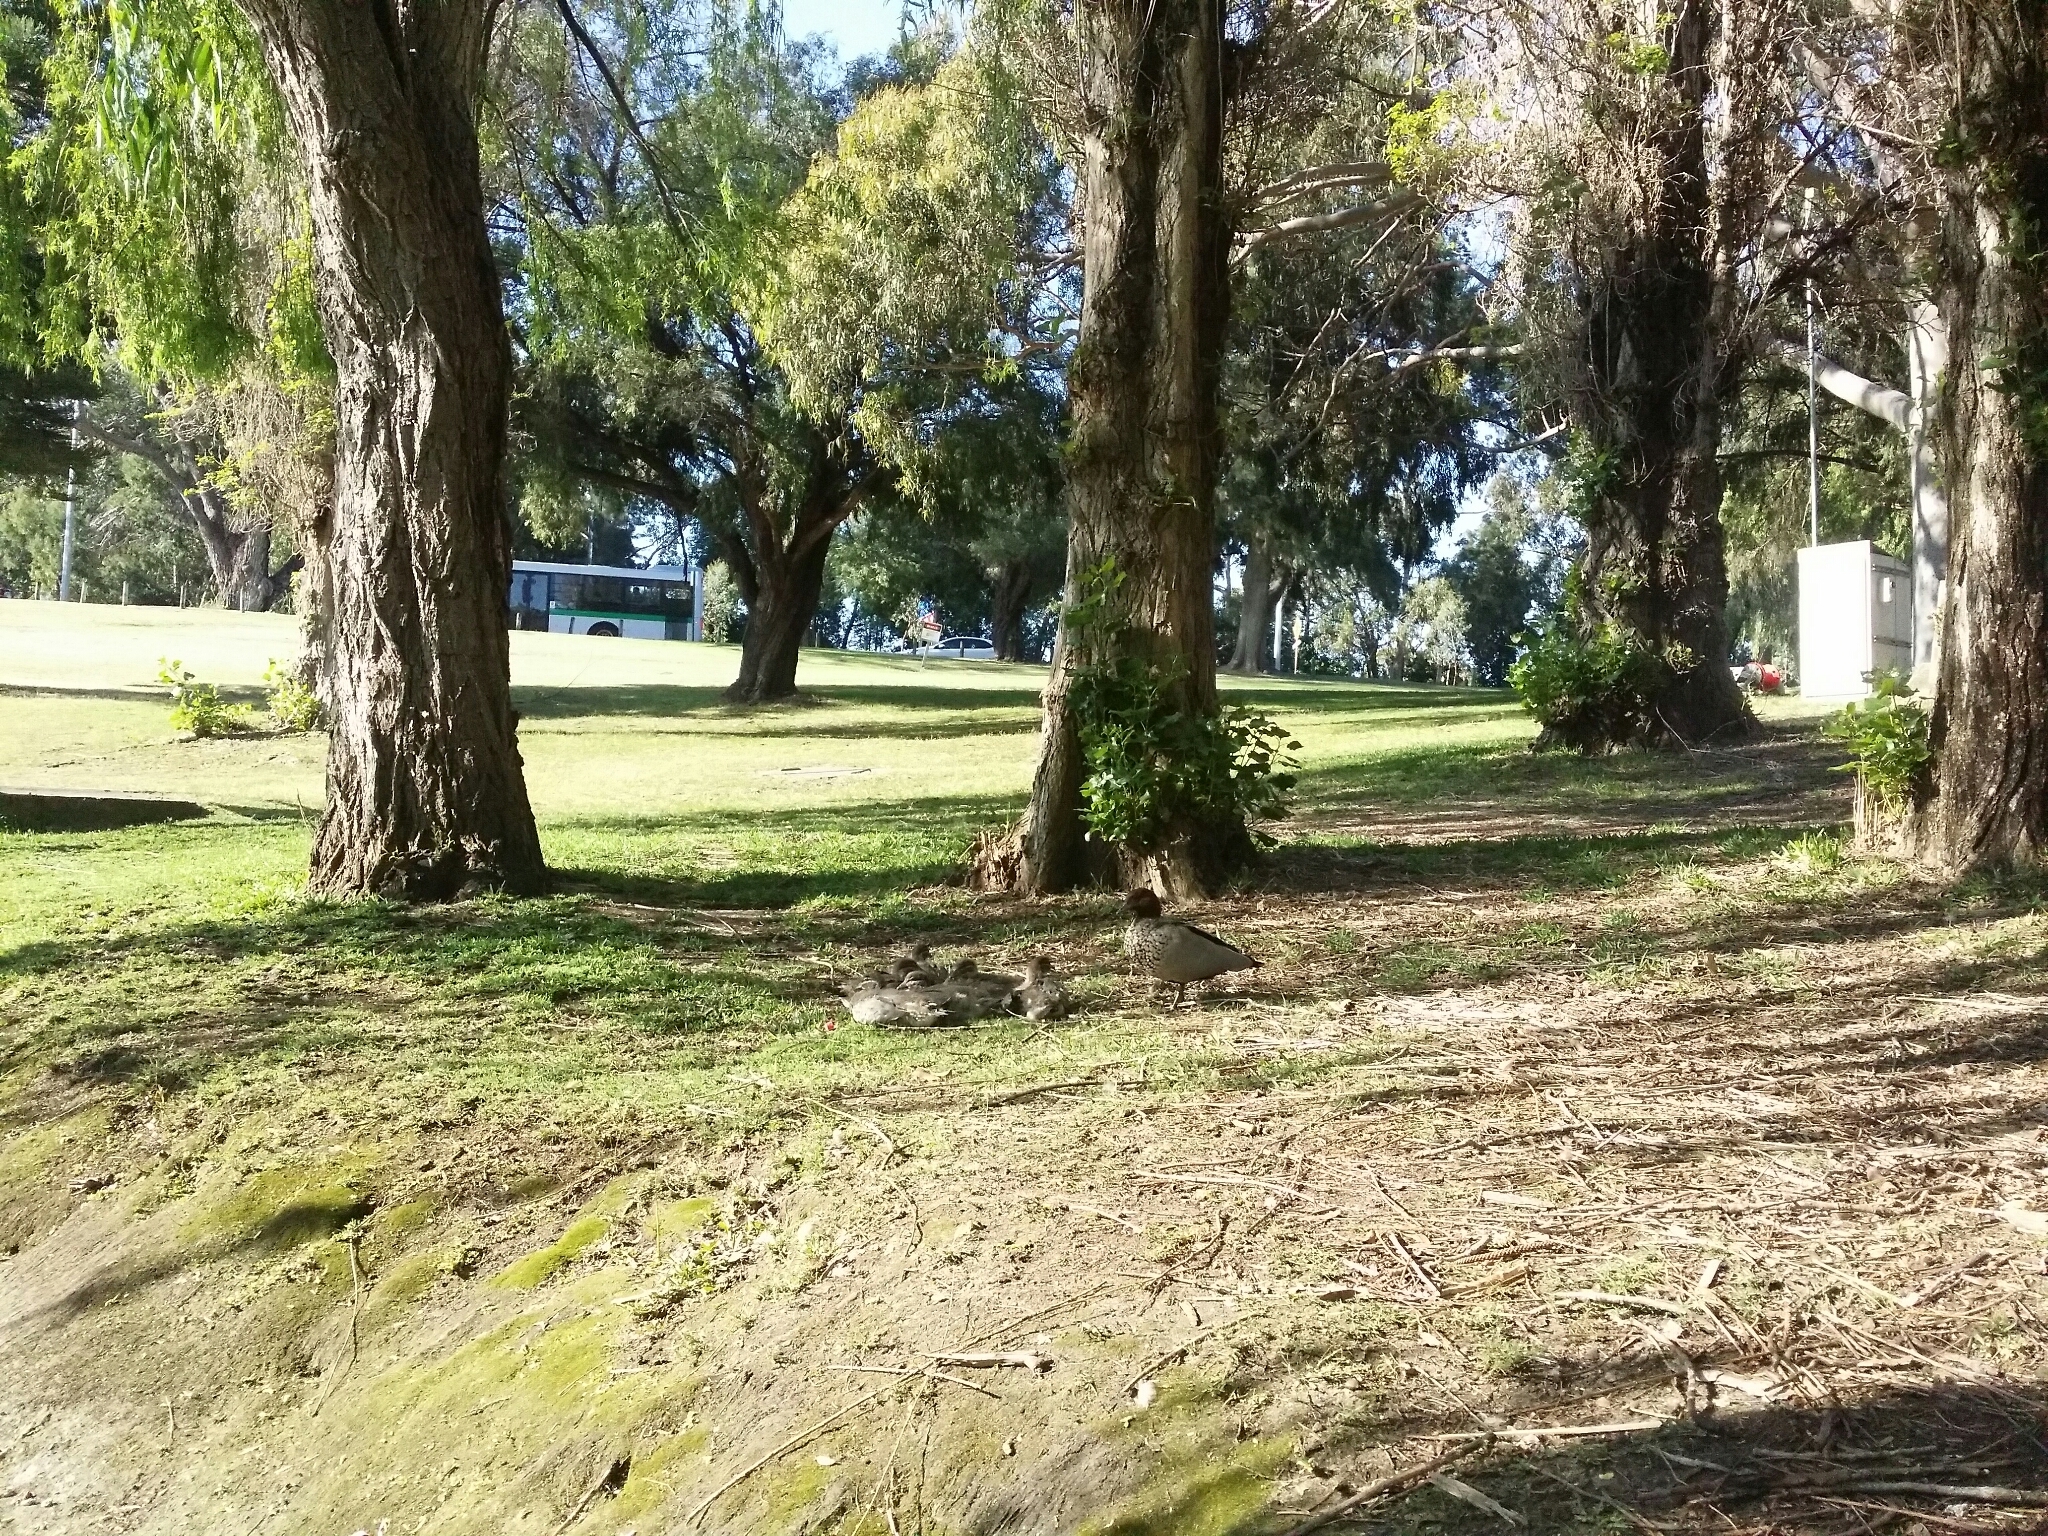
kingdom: Animalia
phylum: Chordata
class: Aves
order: Anseriformes
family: Anatidae
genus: Chenonetta
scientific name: Chenonetta jubata
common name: Maned duck
